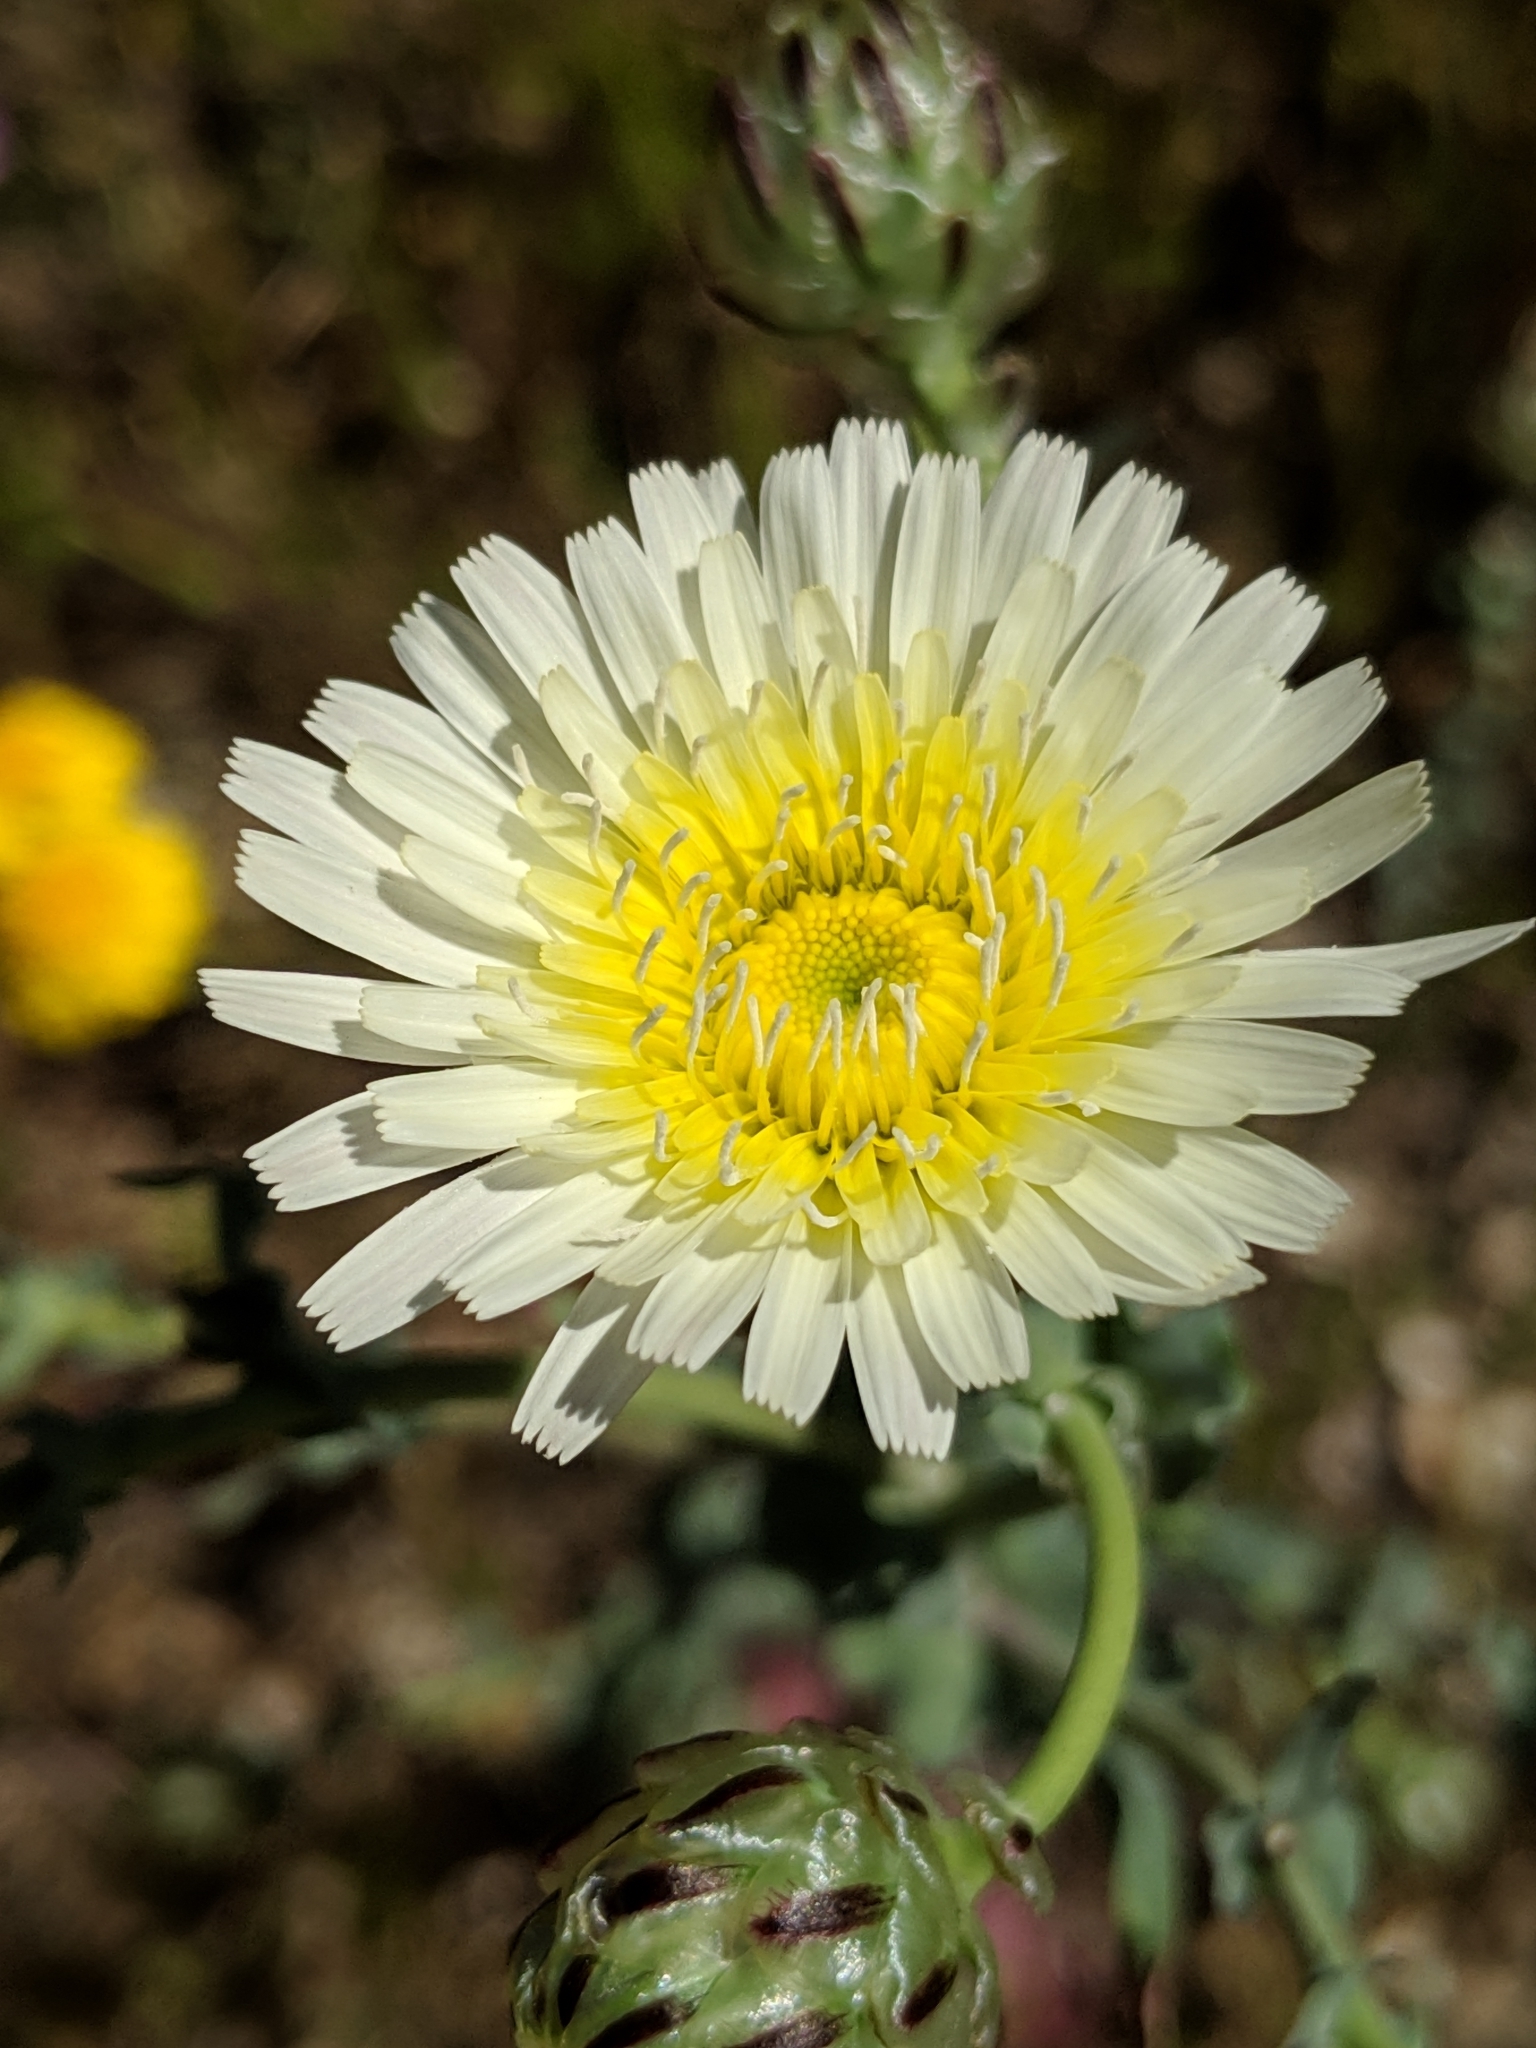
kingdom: Plantae
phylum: Tracheophyta
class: Magnoliopsida
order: Asterales
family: Asteraceae
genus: Malacothrix
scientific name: Malacothrix coulteri
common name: Snake's-head
